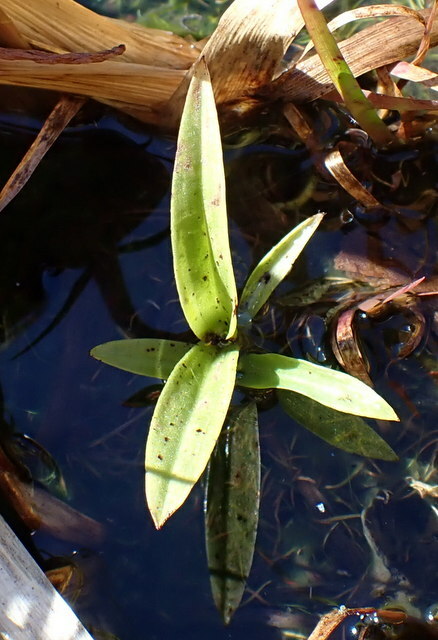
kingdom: Plantae
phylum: Tracheophyta
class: Liliopsida
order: Asparagales
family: Orchidaceae
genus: Habenaria
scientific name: Habenaria repens
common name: Water orchid
